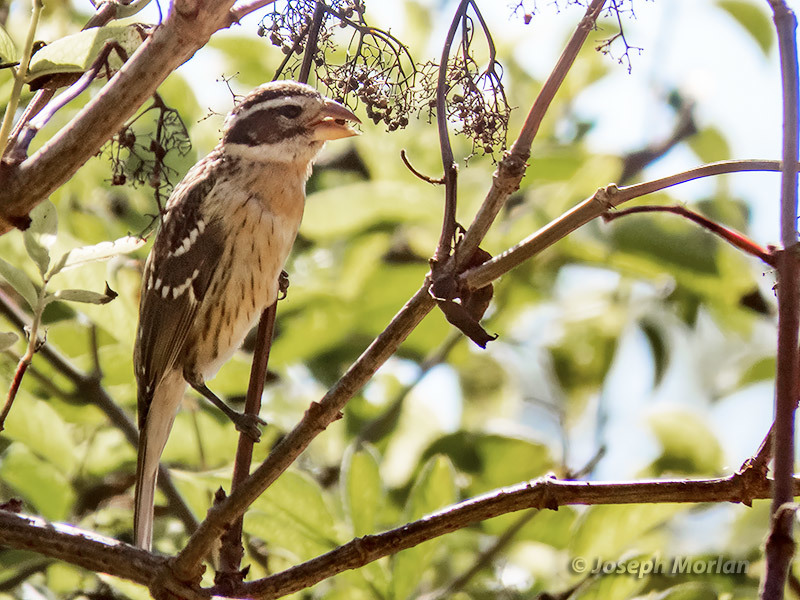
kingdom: Animalia
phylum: Chordata
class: Aves
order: Passeriformes
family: Cardinalidae
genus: Pheucticus
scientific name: Pheucticus melanocephalus
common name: Black-headed grosbeak
